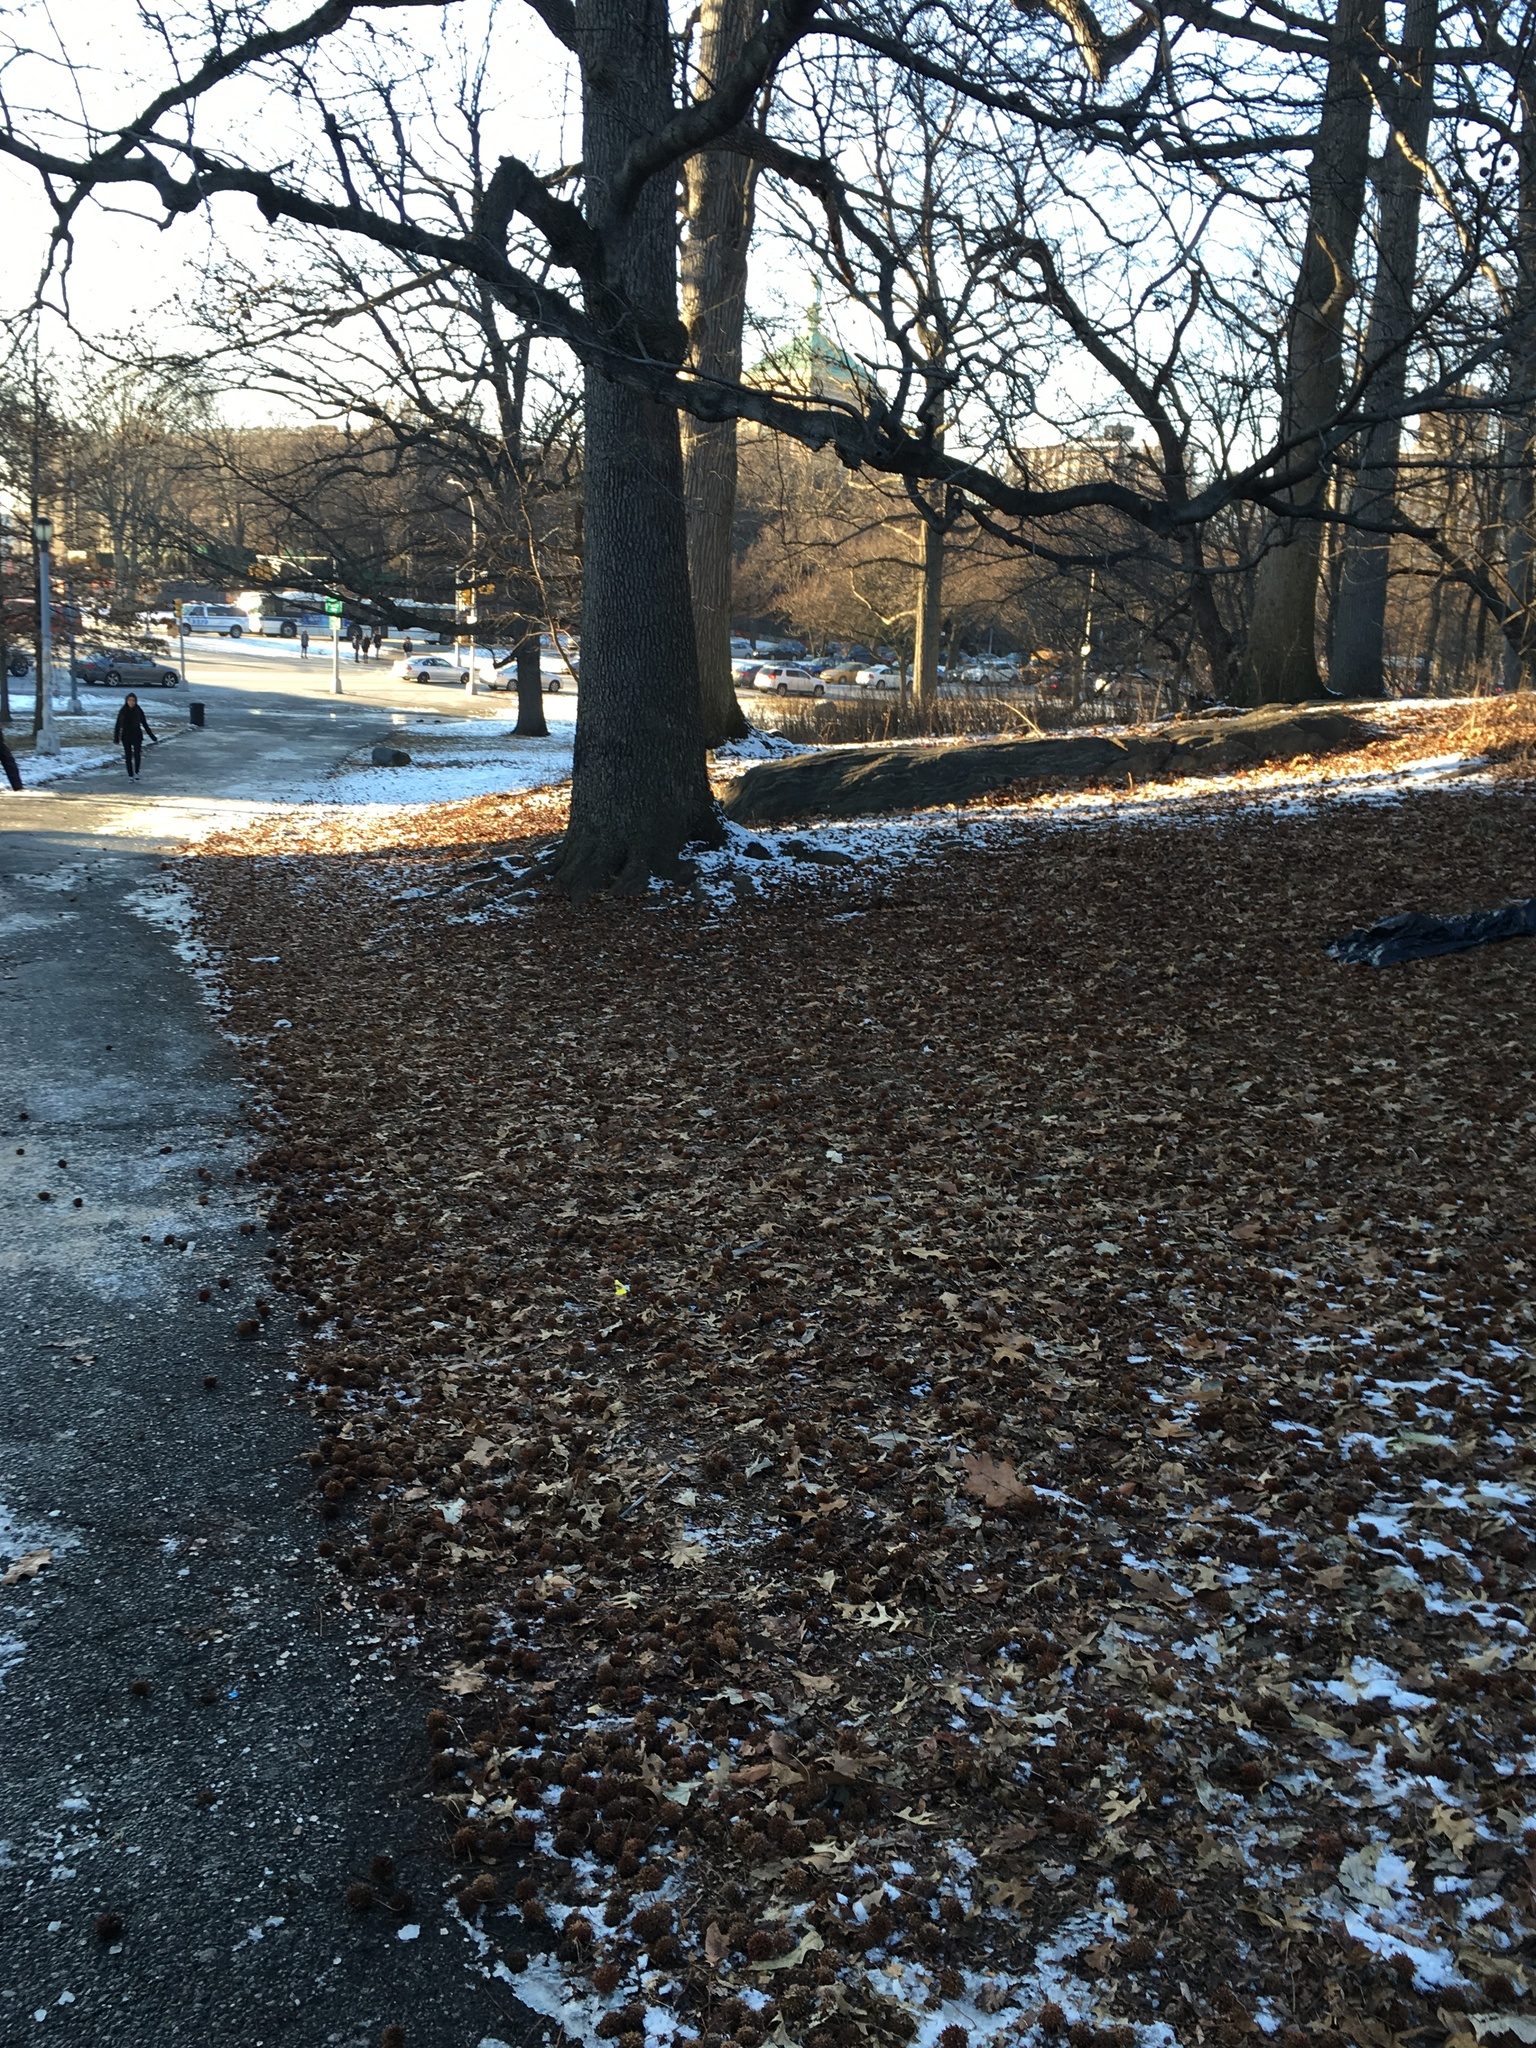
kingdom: Plantae
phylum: Tracheophyta
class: Magnoliopsida
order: Saxifragales
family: Altingiaceae
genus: Liquidambar
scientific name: Liquidambar styraciflua
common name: Sweet gum
